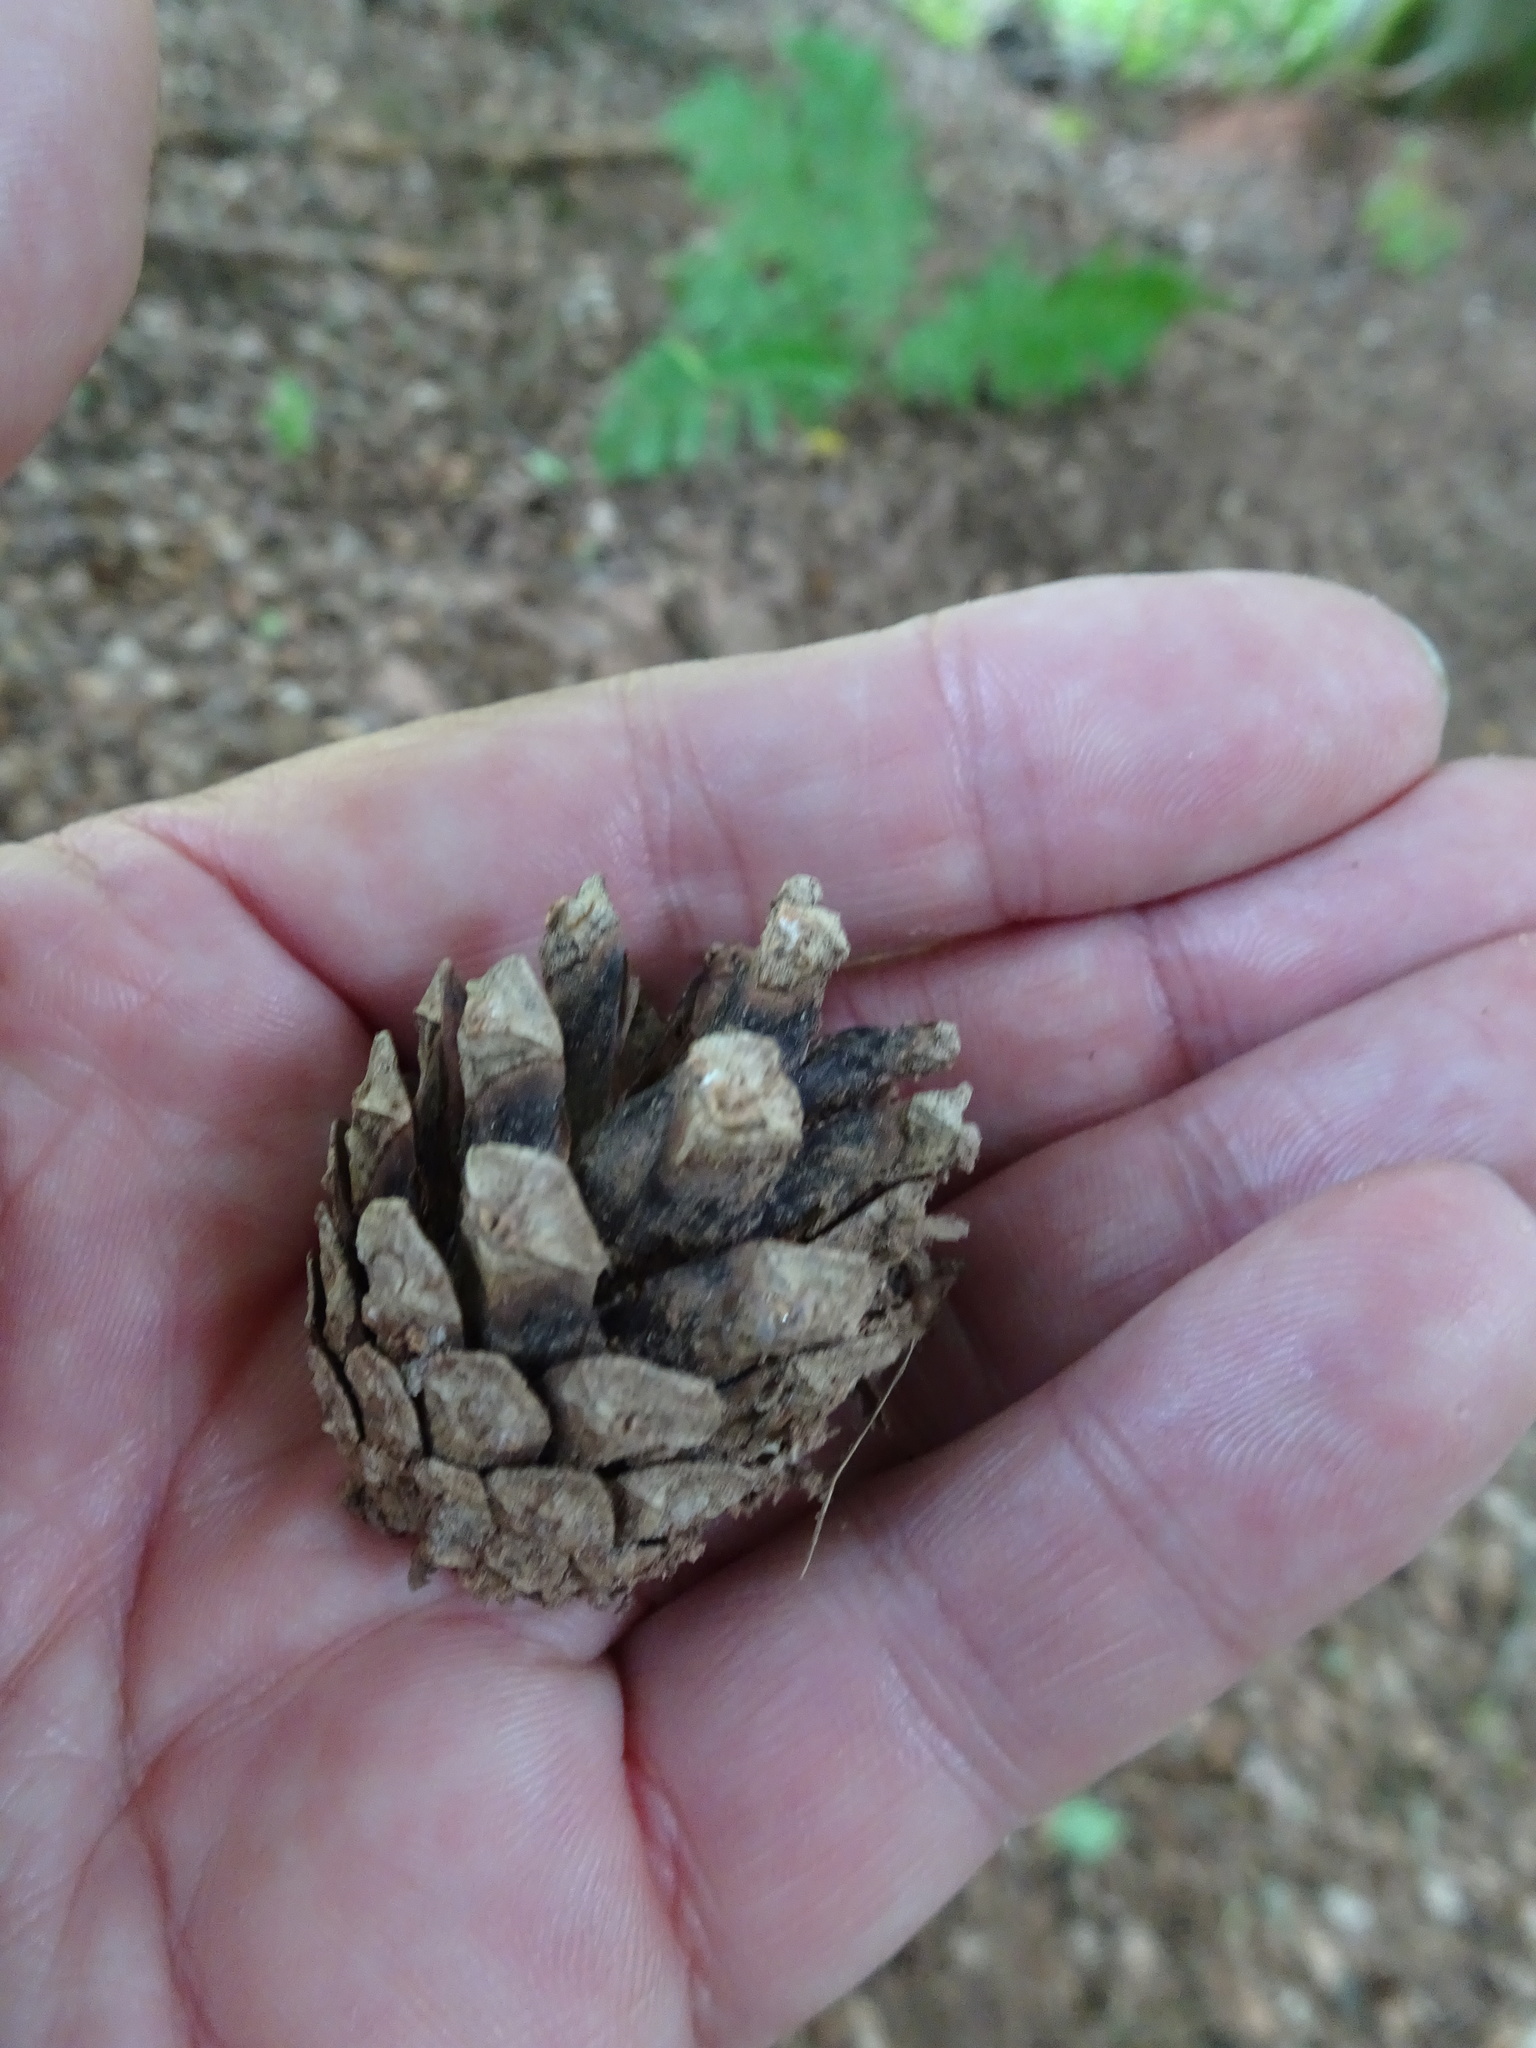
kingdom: Plantae
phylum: Tracheophyta
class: Pinopsida
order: Pinales
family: Pinaceae
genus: Pinus
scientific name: Pinus sylvestris
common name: Scots pine
